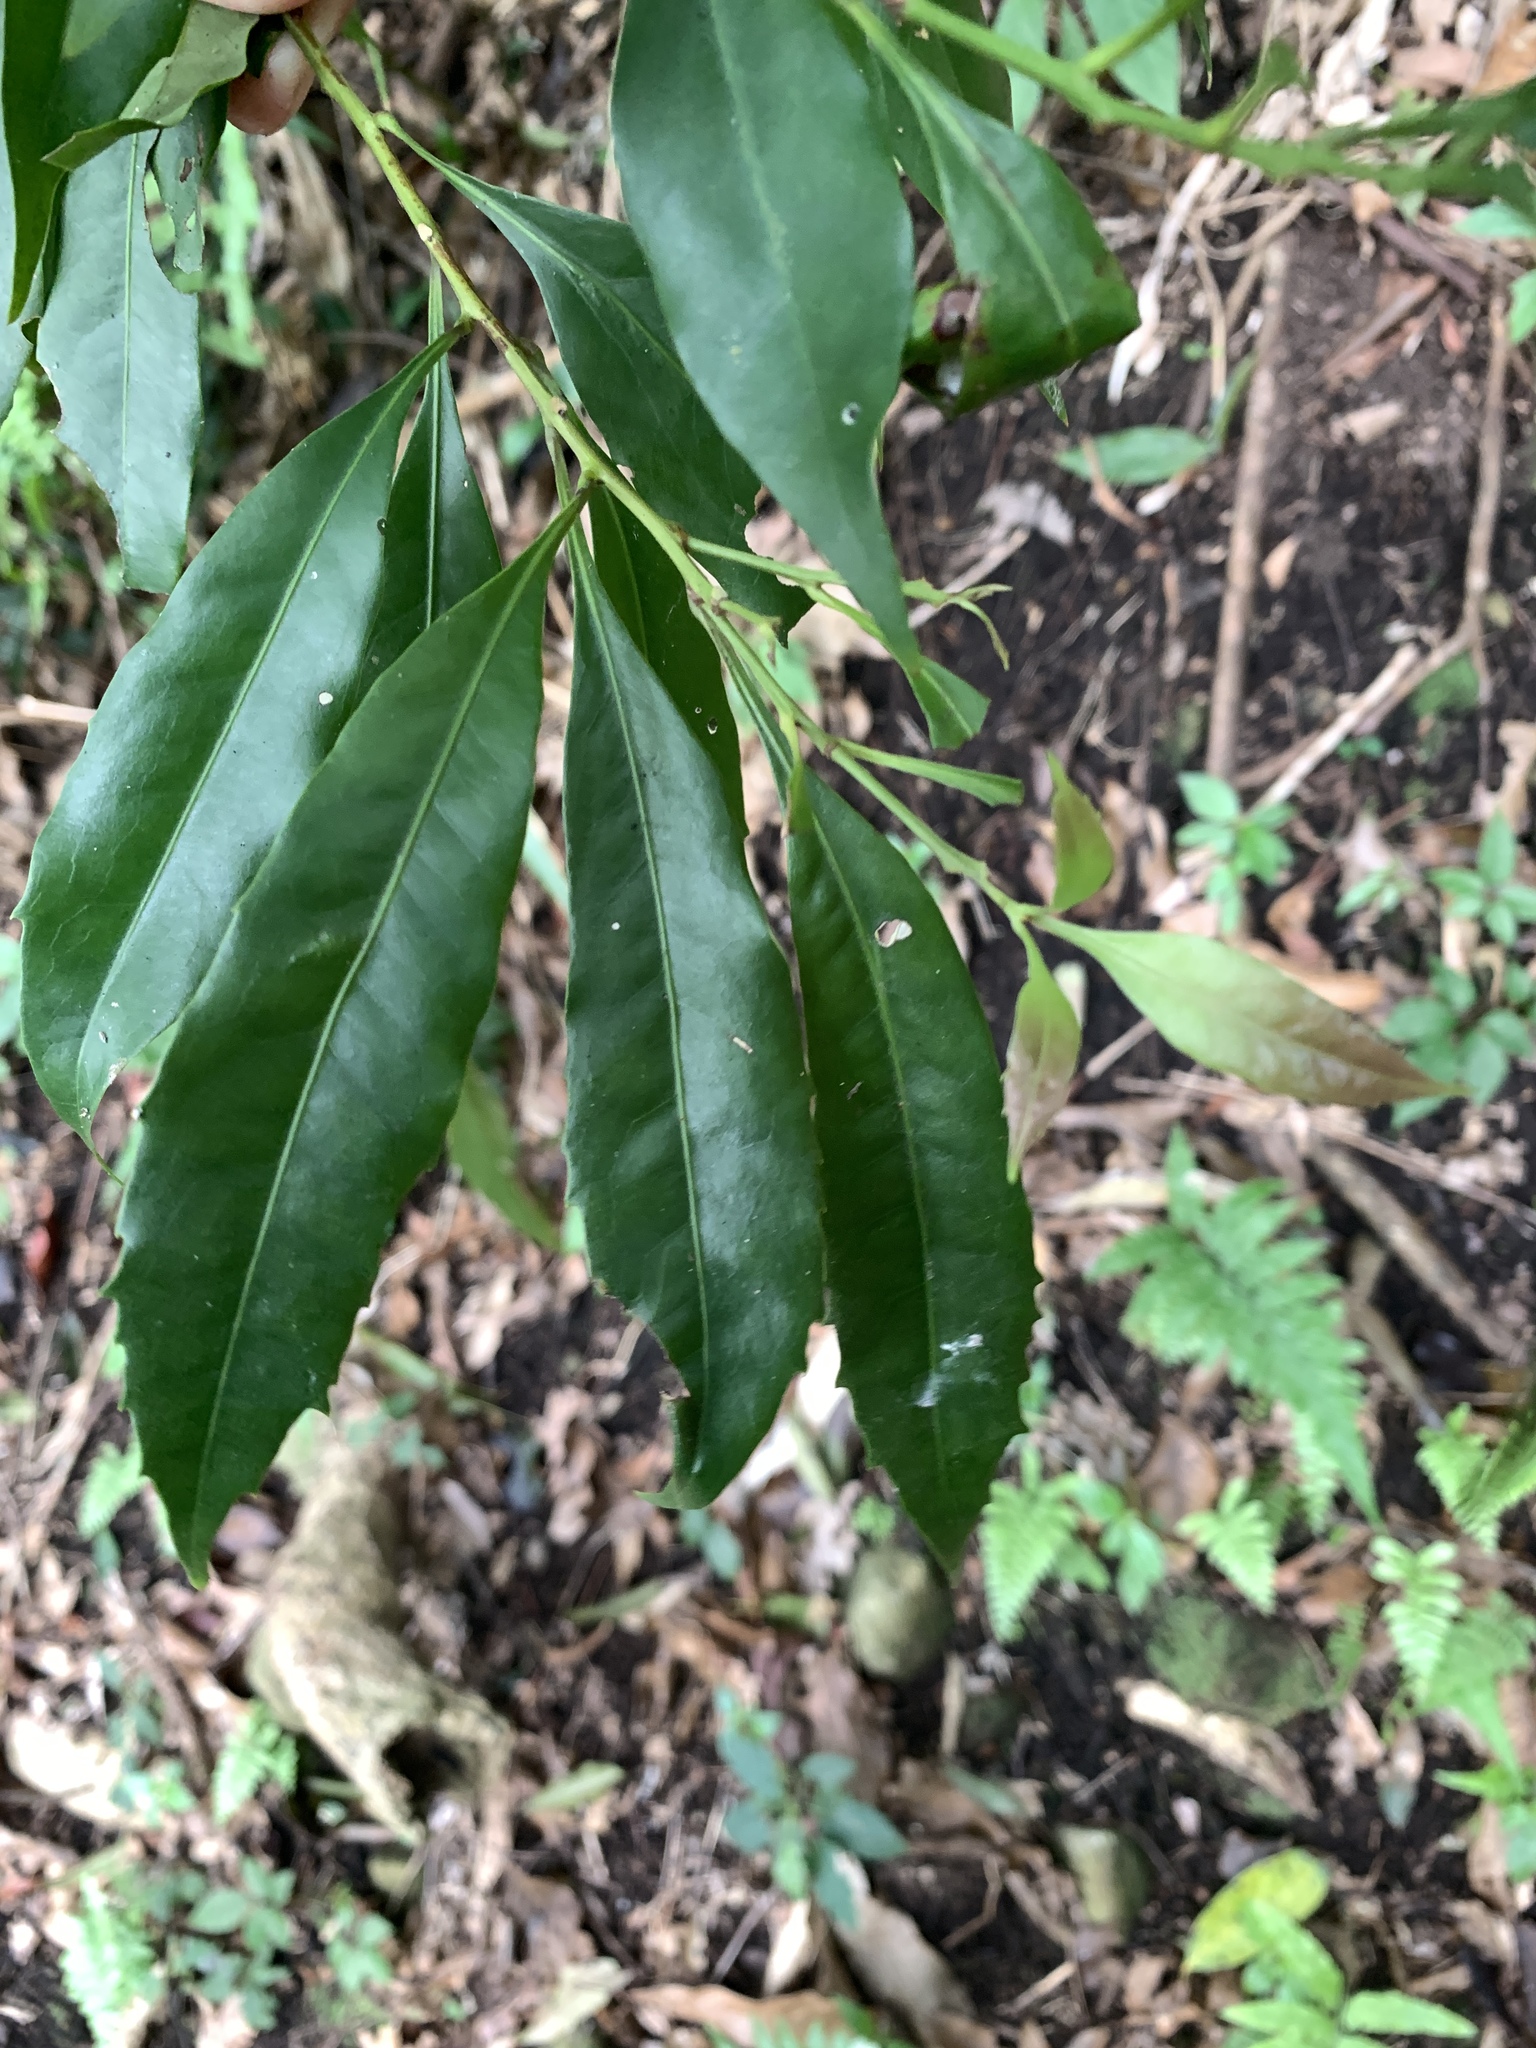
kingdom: Plantae
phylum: Tracheophyta
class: Magnoliopsida
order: Proteales
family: Proteaceae
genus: Helicia
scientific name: Helicia cochinchinensis
